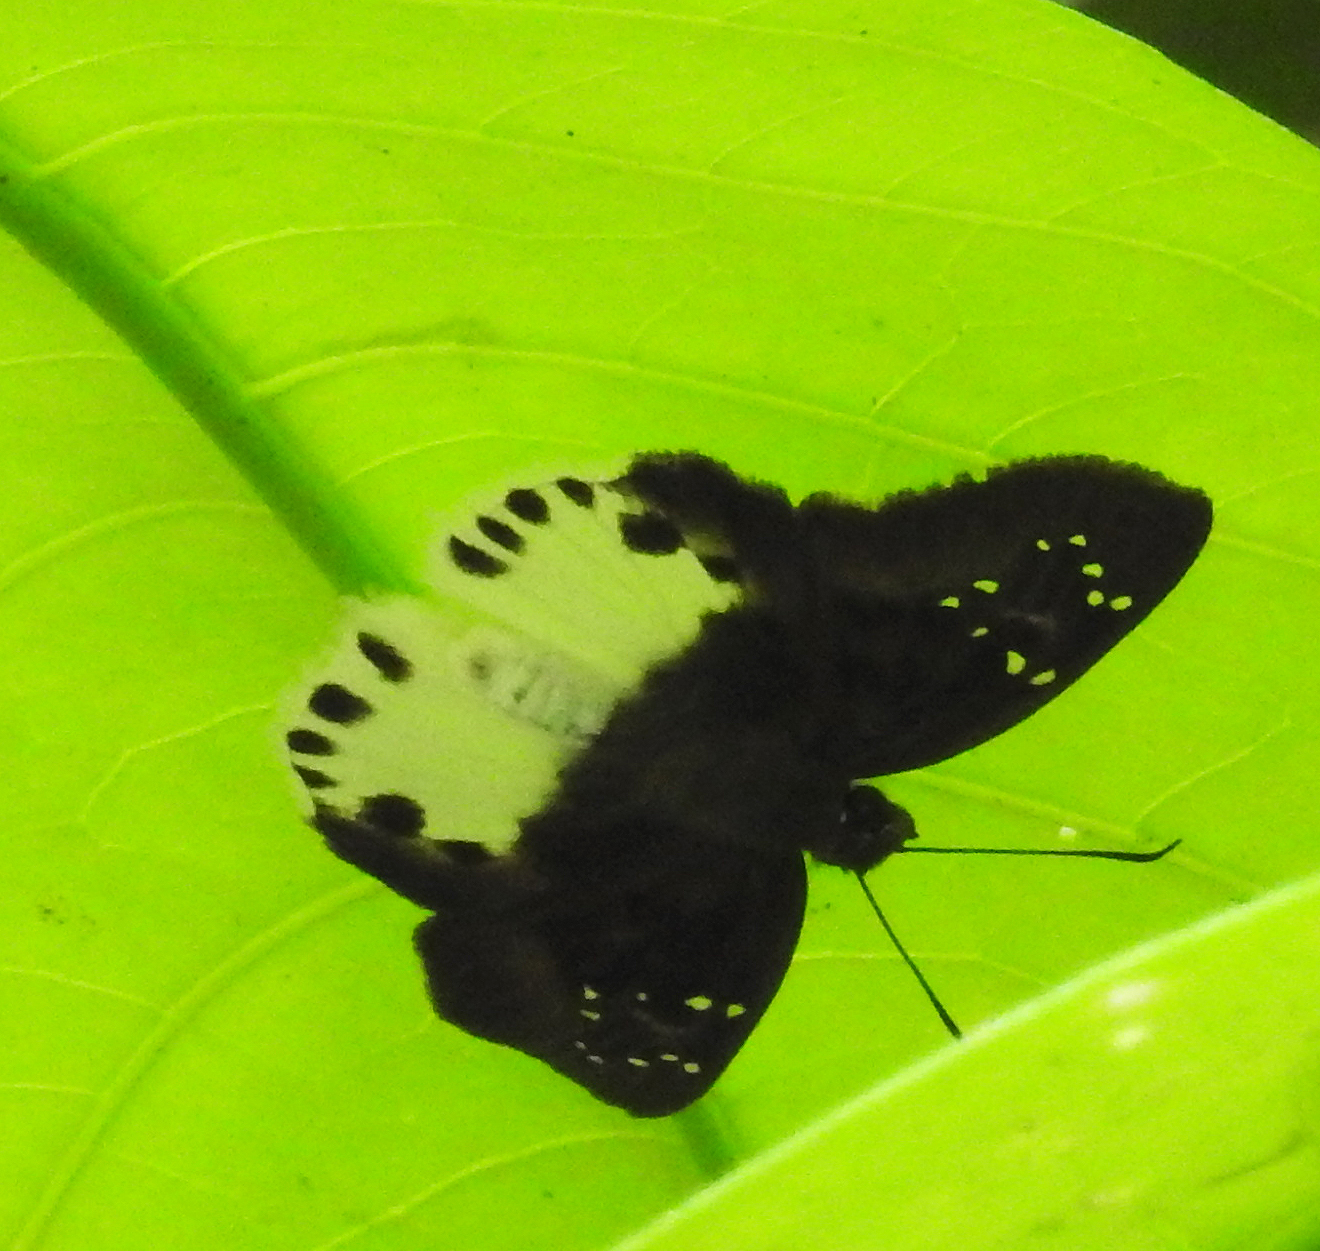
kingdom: Animalia
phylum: Arthropoda
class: Insecta
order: Lepidoptera
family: Hesperiidae
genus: Tagiades
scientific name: Tagiades litigiosa
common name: Water snow flat
